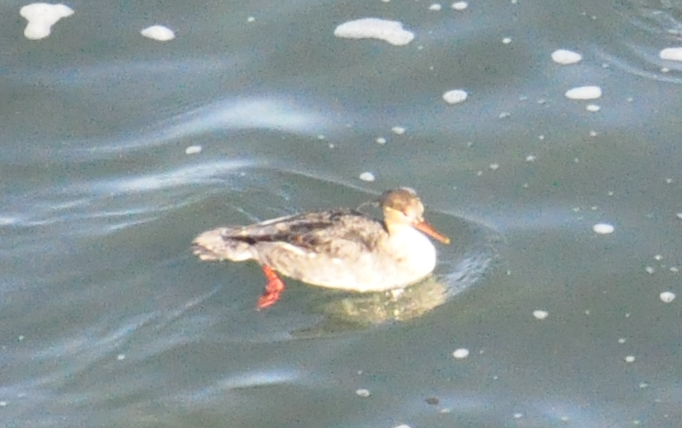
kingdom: Animalia
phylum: Chordata
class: Aves
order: Anseriformes
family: Anatidae
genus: Mergus
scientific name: Mergus serrator
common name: Red-breasted merganser
